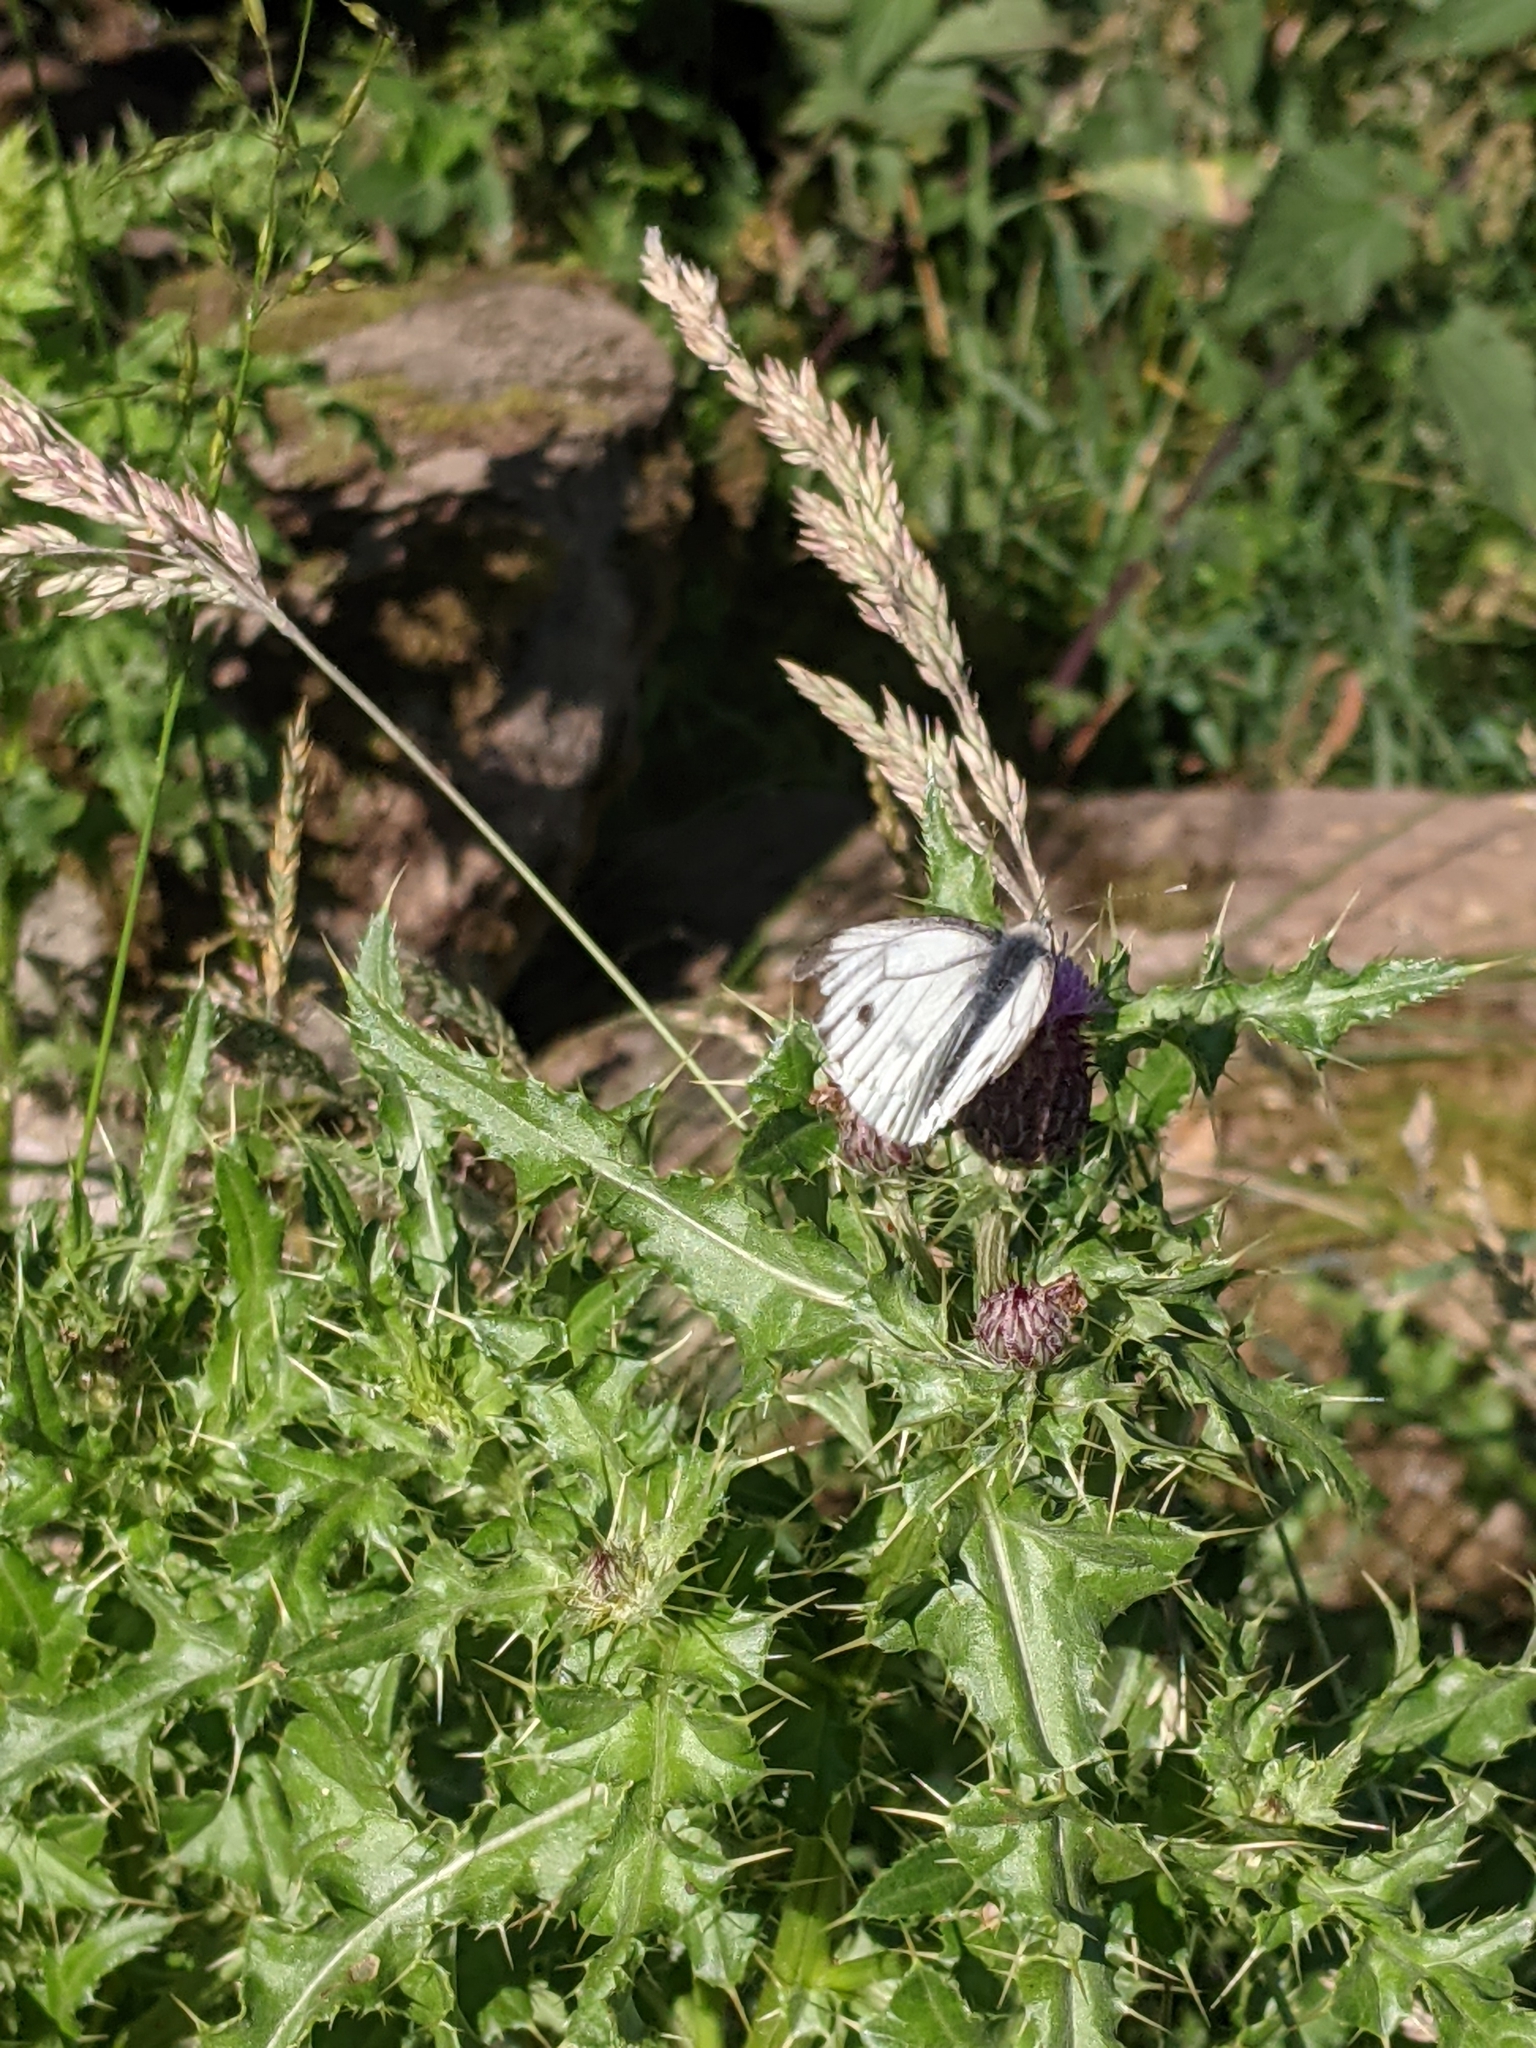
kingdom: Animalia
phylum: Arthropoda
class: Insecta
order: Lepidoptera
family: Pieridae
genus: Pieris
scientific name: Pieris napi
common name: Green-veined white
